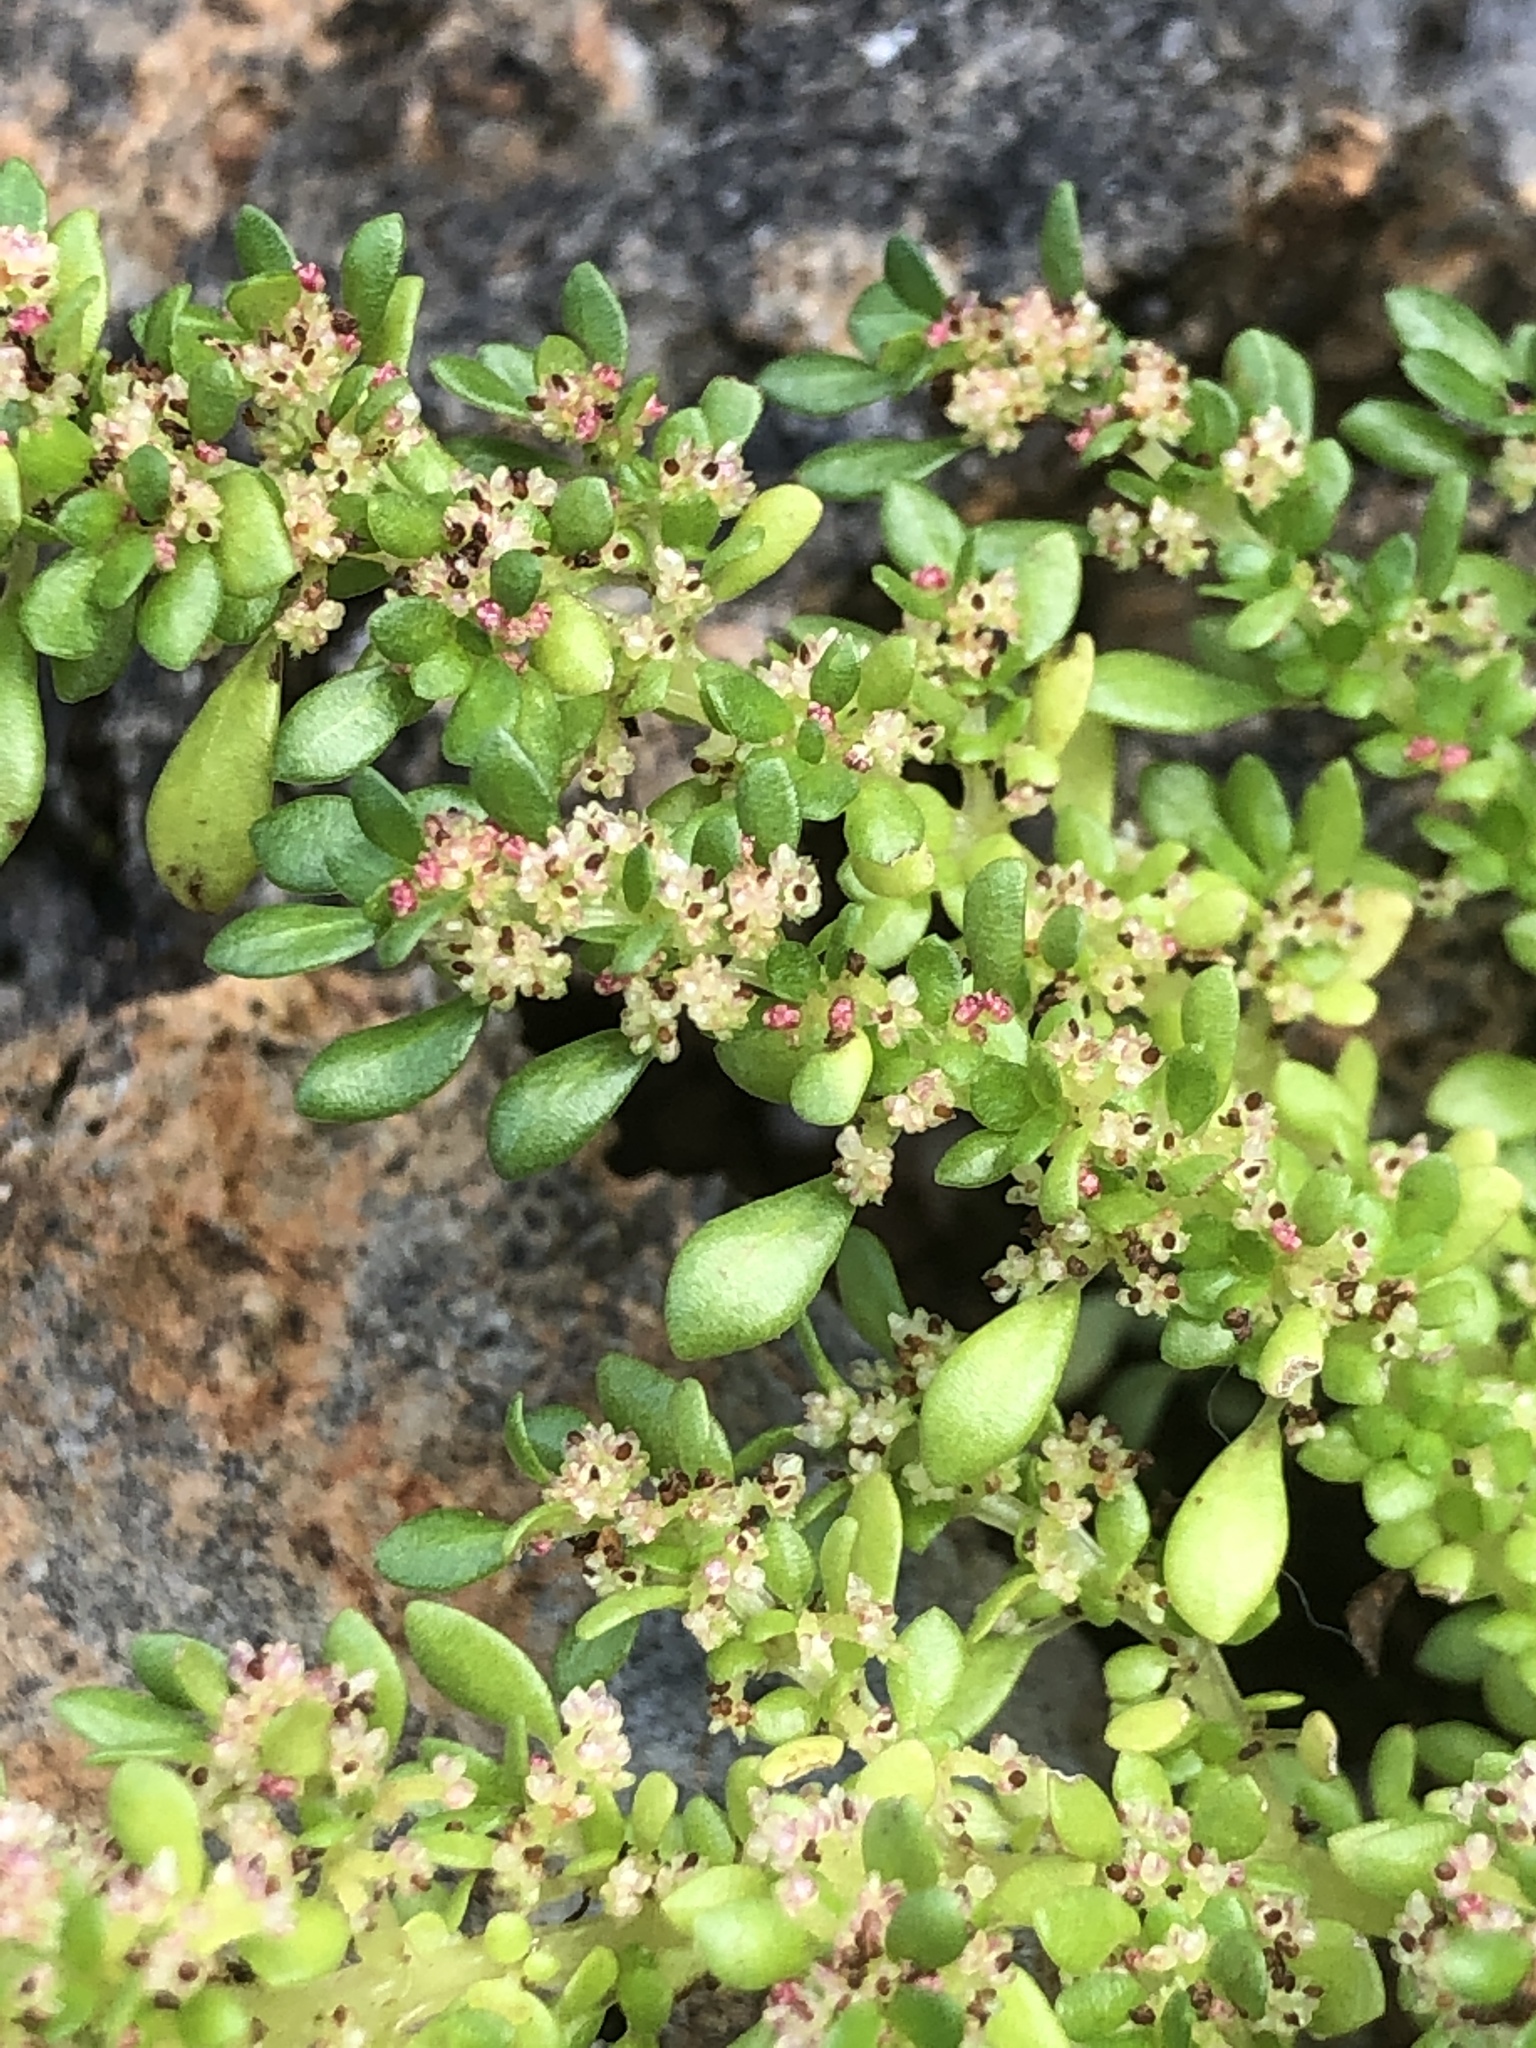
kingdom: Plantae
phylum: Tracheophyta
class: Magnoliopsida
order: Rosales
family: Urticaceae
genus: Pilea
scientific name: Pilea microphylla
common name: Artillery-plant
